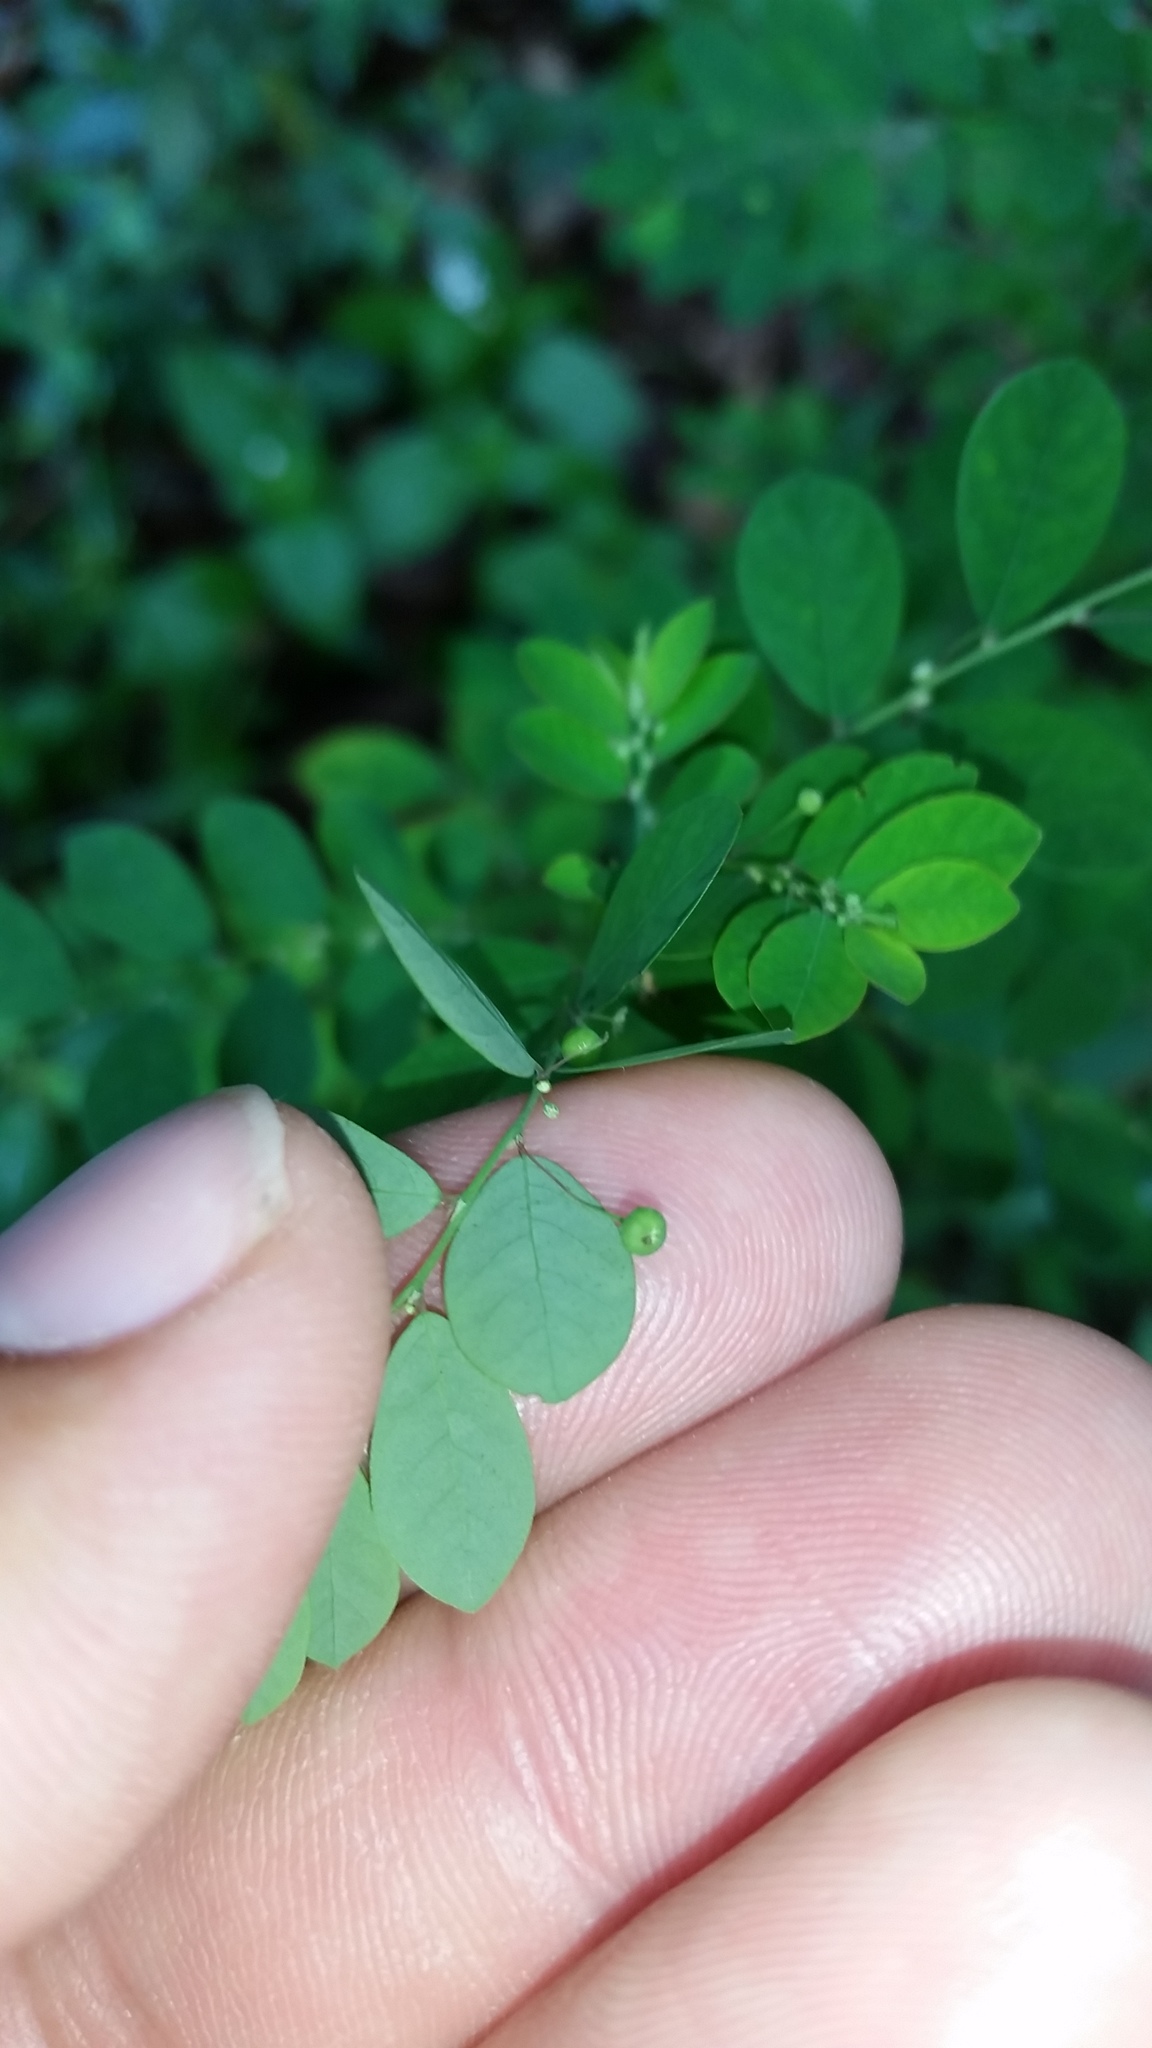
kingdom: Plantae
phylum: Tracheophyta
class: Magnoliopsida
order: Malpighiales
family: Phyllanthaceae
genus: Phyllanthus
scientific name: Phyllanthus tenellus
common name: Mascarene island leaf-flower
